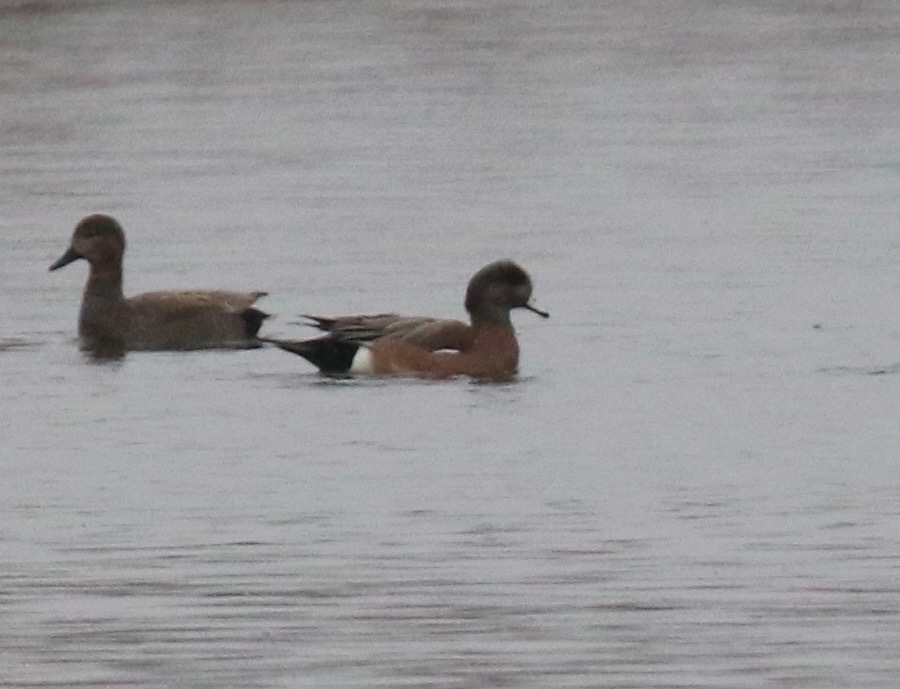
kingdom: Animalia
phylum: Chordata
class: Aves
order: Anseriformes
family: Anatidae
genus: Mareca
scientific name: Mareca americana
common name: American wigeon
